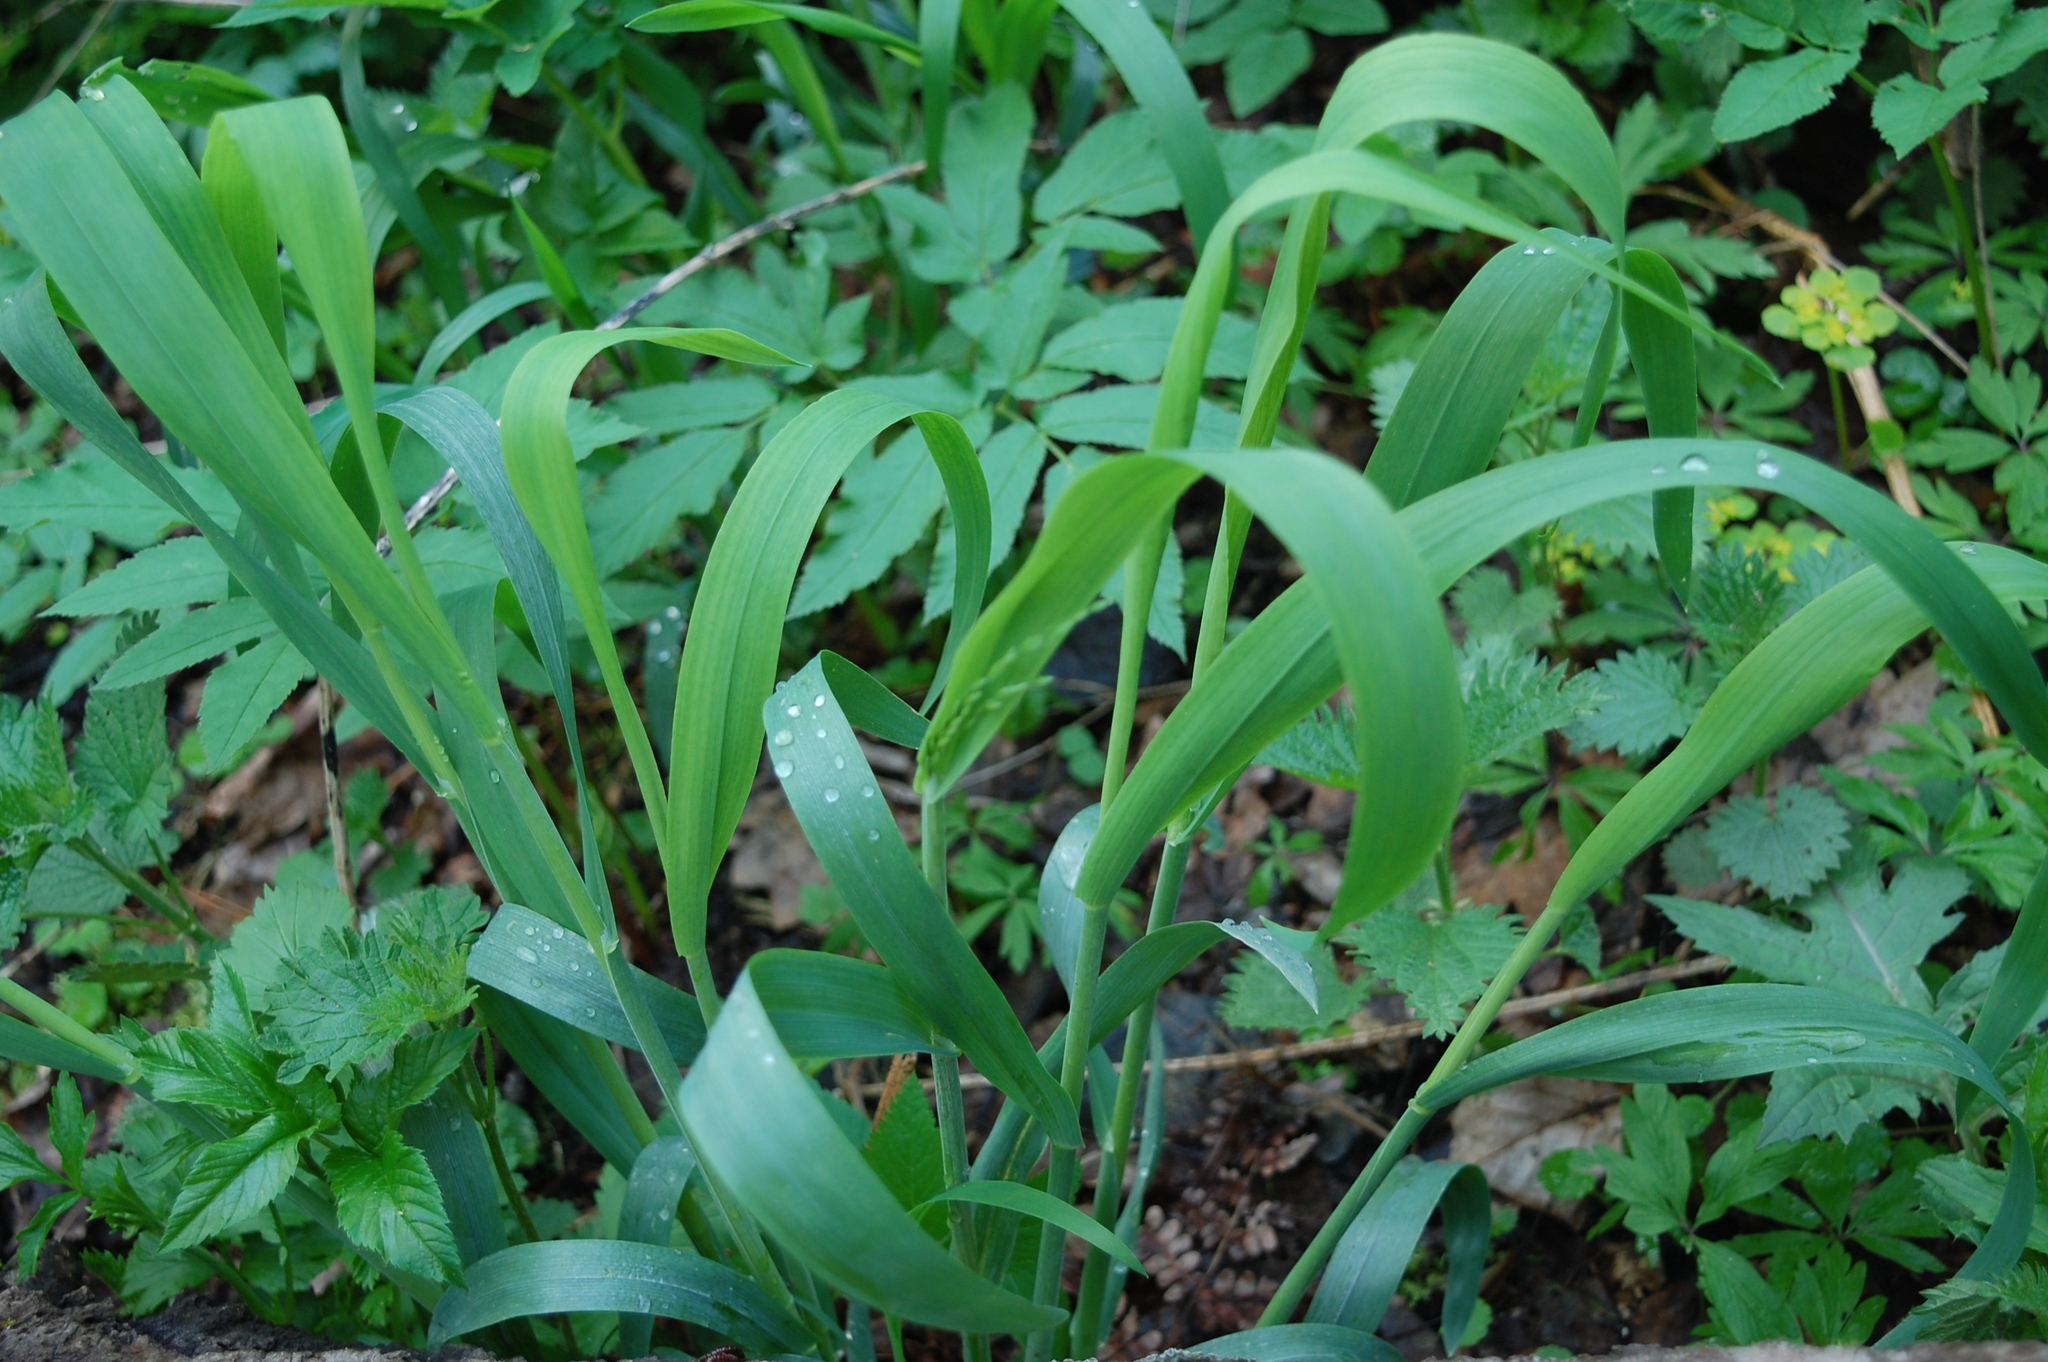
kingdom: Plantae
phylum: Tracheophyta
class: Liliopsida
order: Poales
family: Poaceae
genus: Milium
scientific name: Milium effusum
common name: Wood millet
